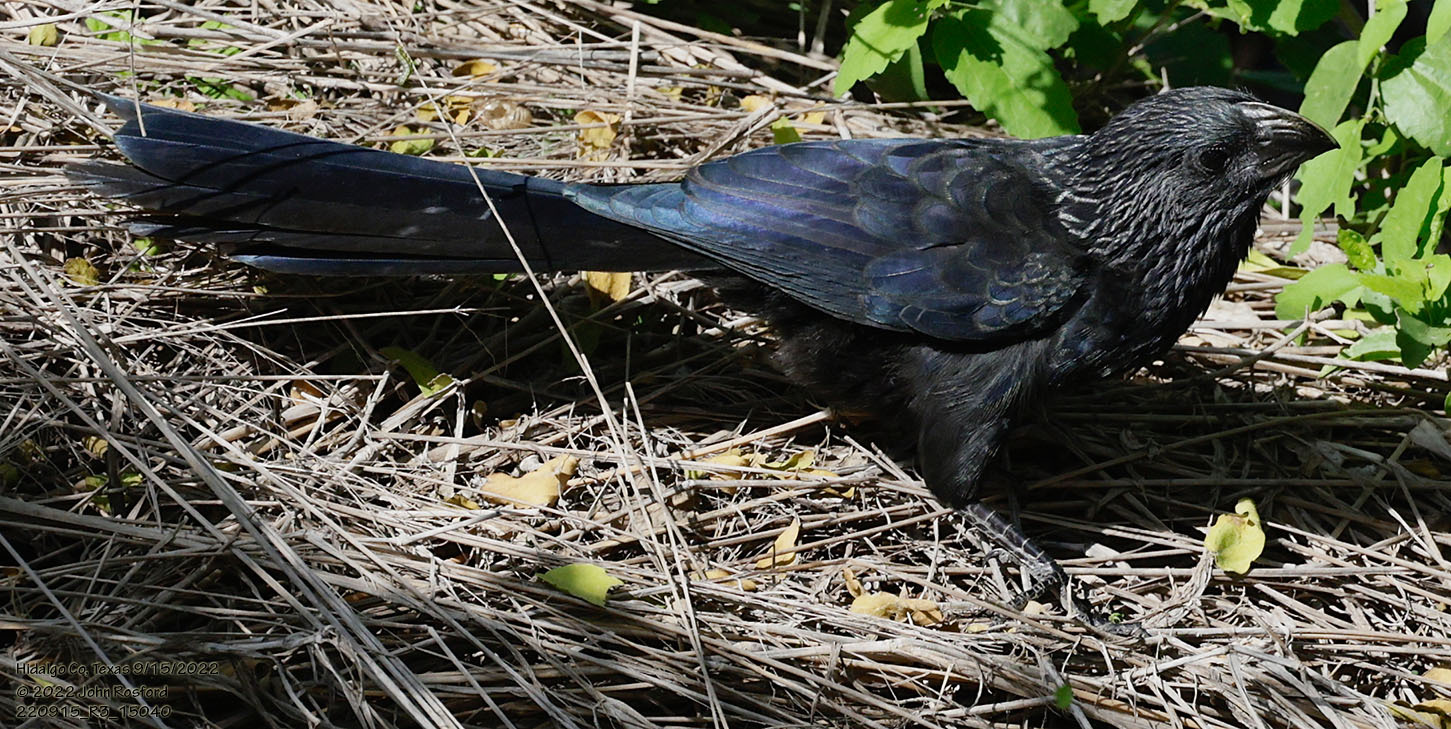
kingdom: Animalia
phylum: Chordata
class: Aves
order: Cuculiformes
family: Cuculidae
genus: Crotophaga
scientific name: Crotophaga sulcirostris
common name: Groove-billed ani
